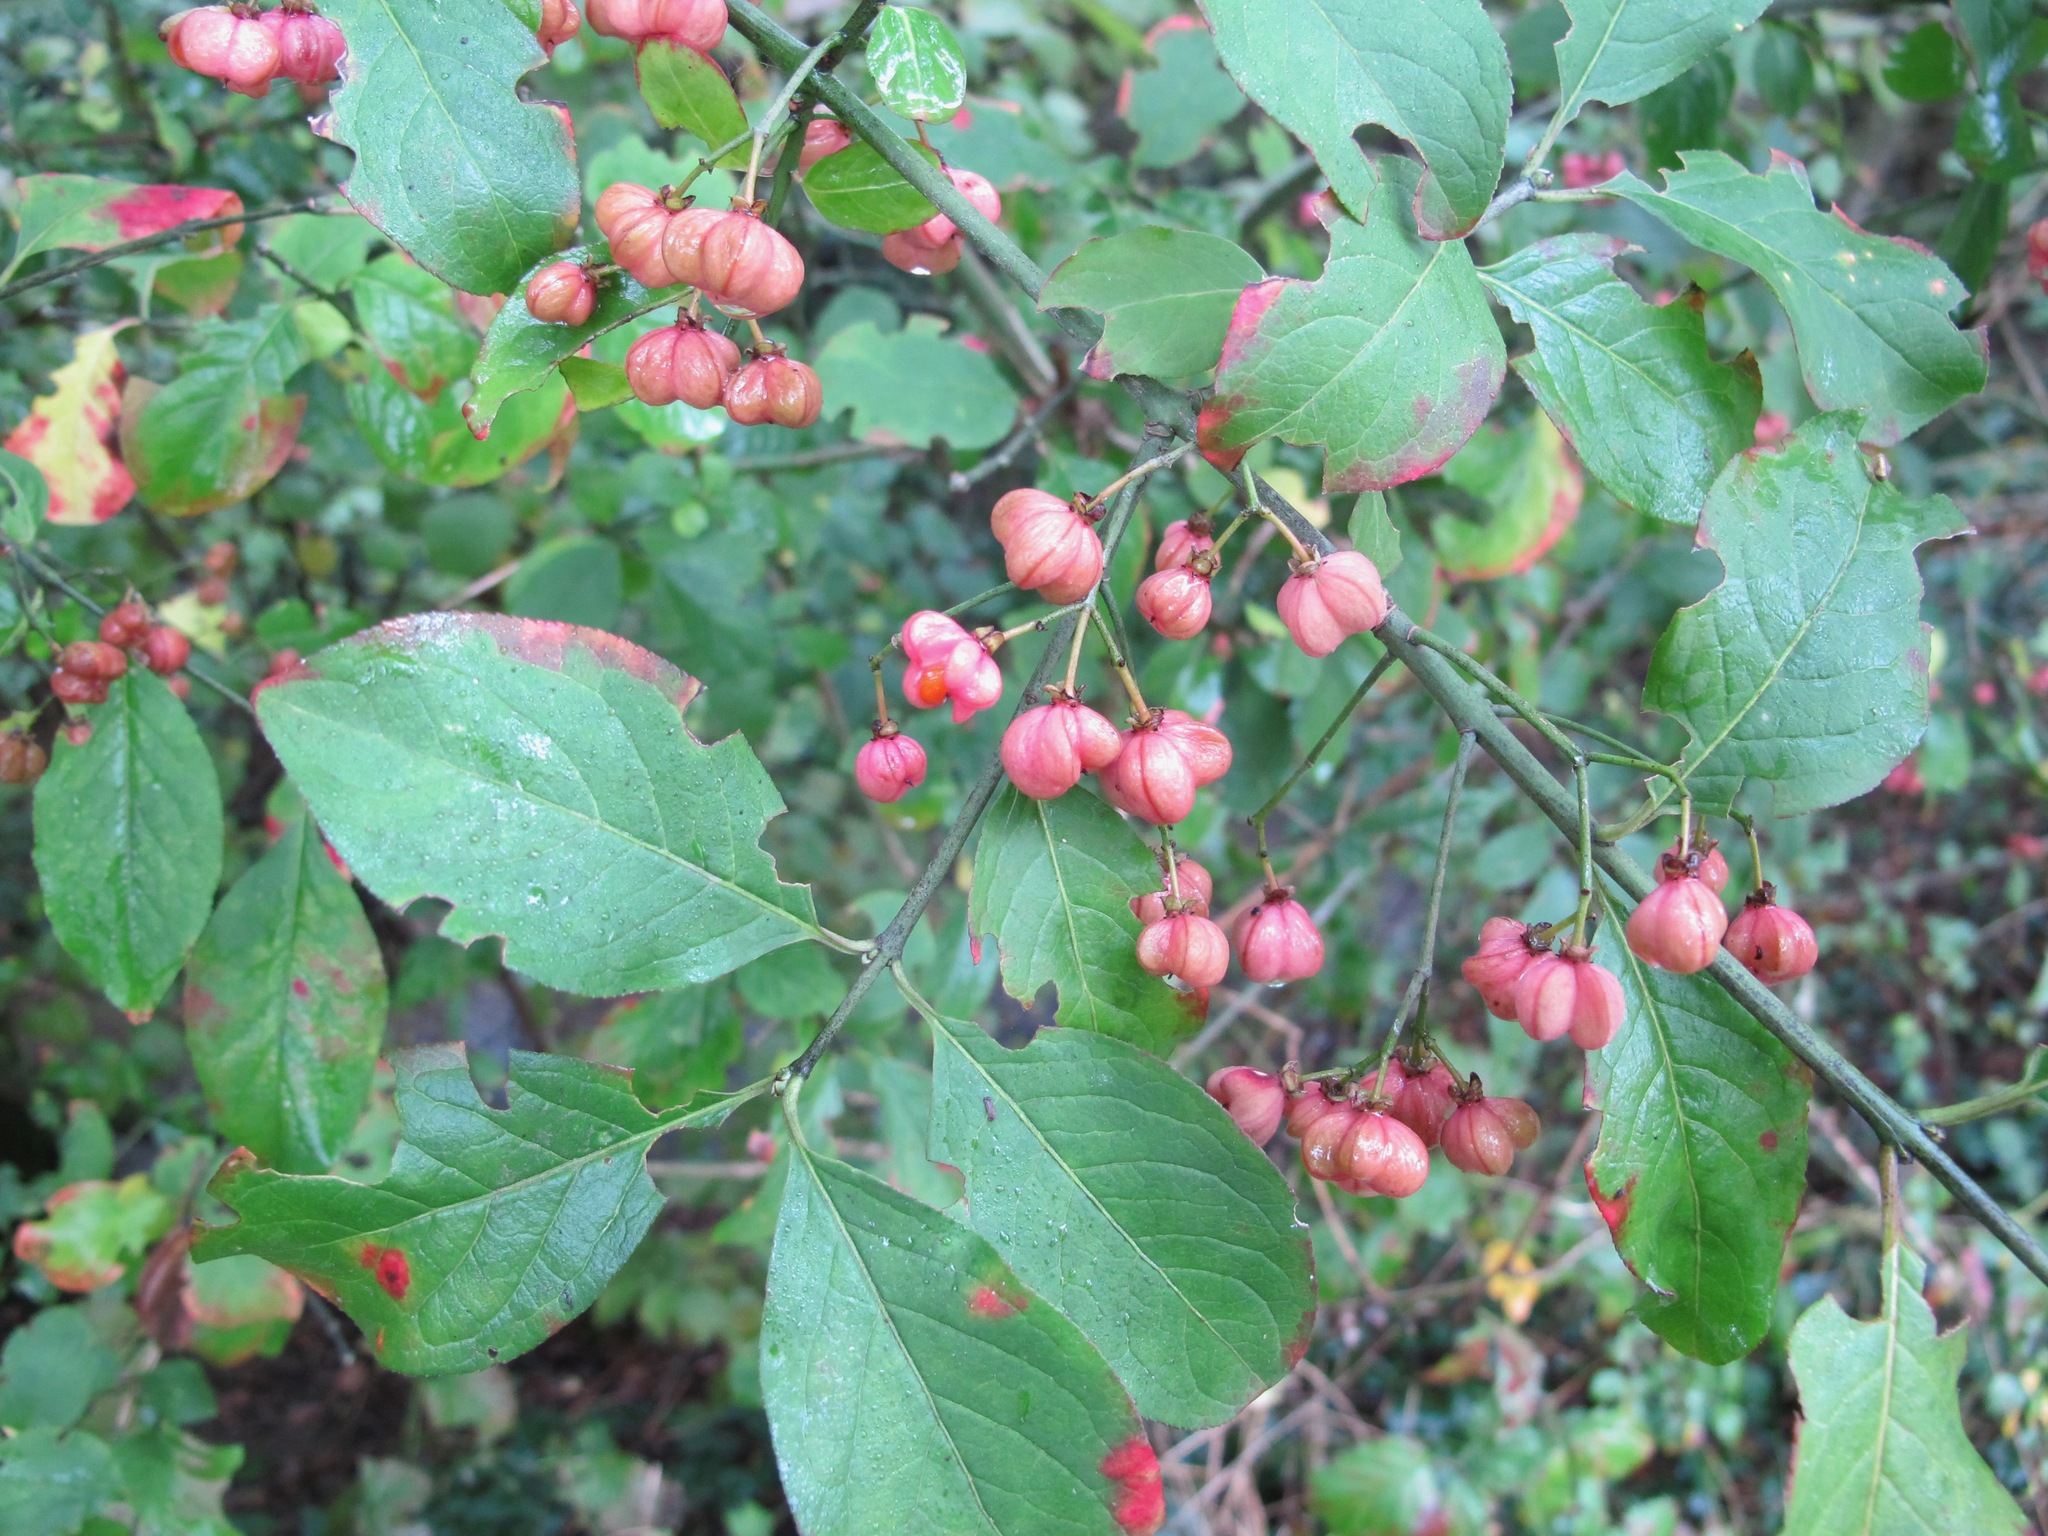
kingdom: Plantae
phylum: Tracheophyta
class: Magnoliopsida
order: Celastrales
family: Celastraceae
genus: Euonymus
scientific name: Euonymus europaeus
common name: Spindle
